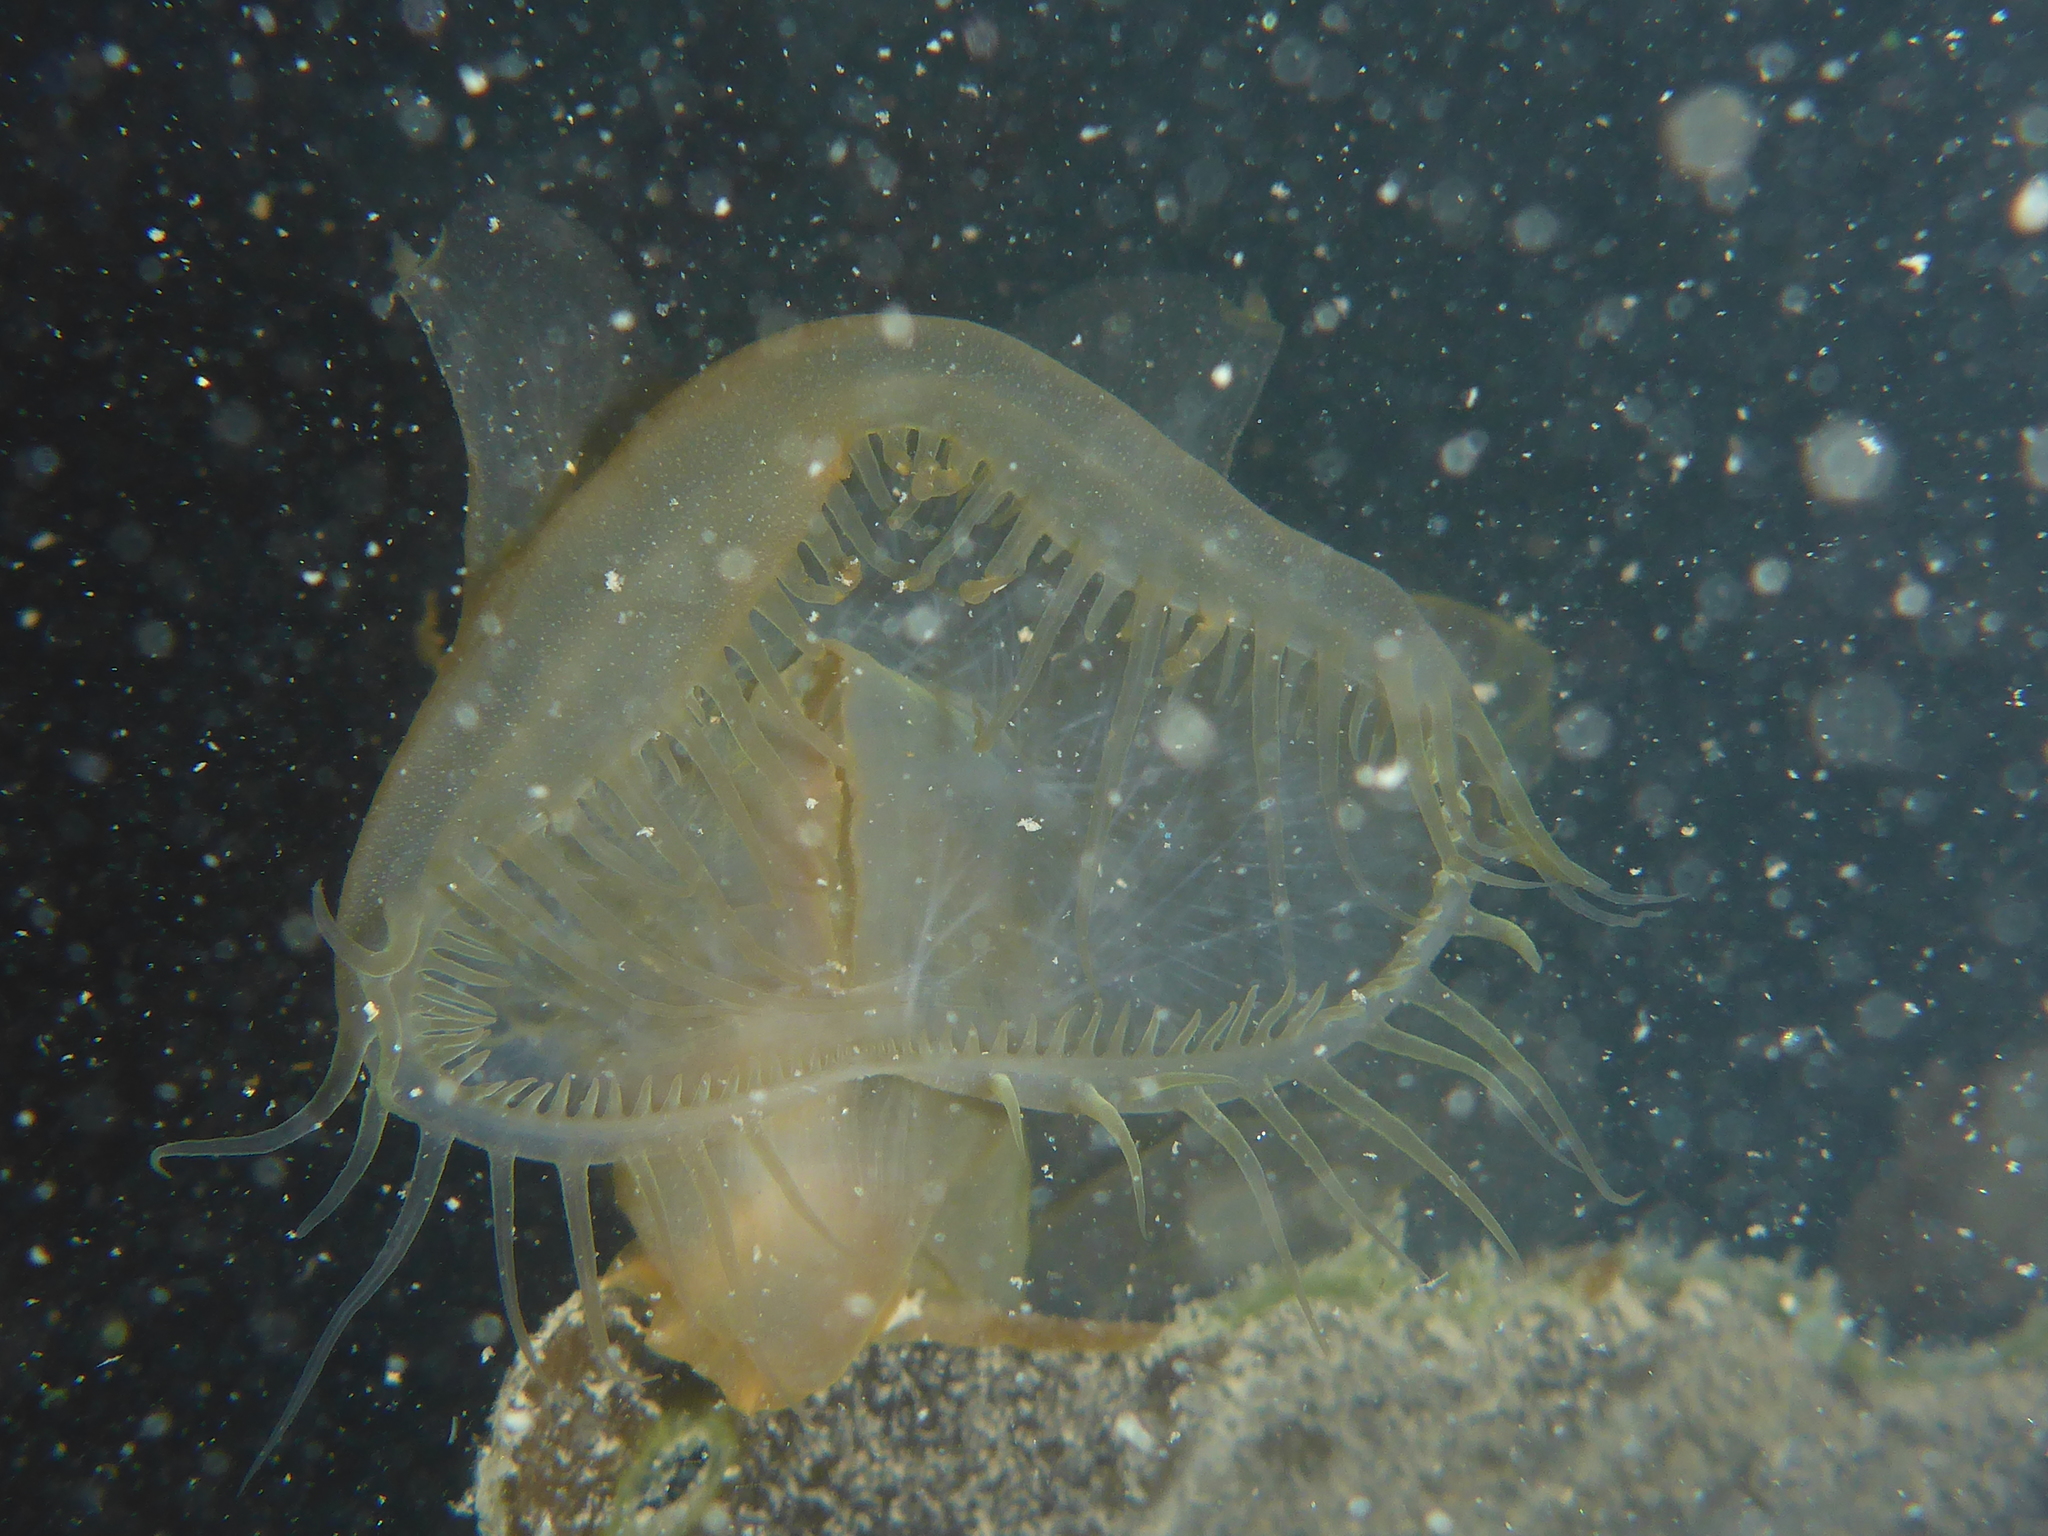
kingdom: Animalia
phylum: Mollusca
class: Gastropoda
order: Nudibranchia
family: Tethydidae
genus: Melibe
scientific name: Melibe leonina
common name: Lion nudibranch
